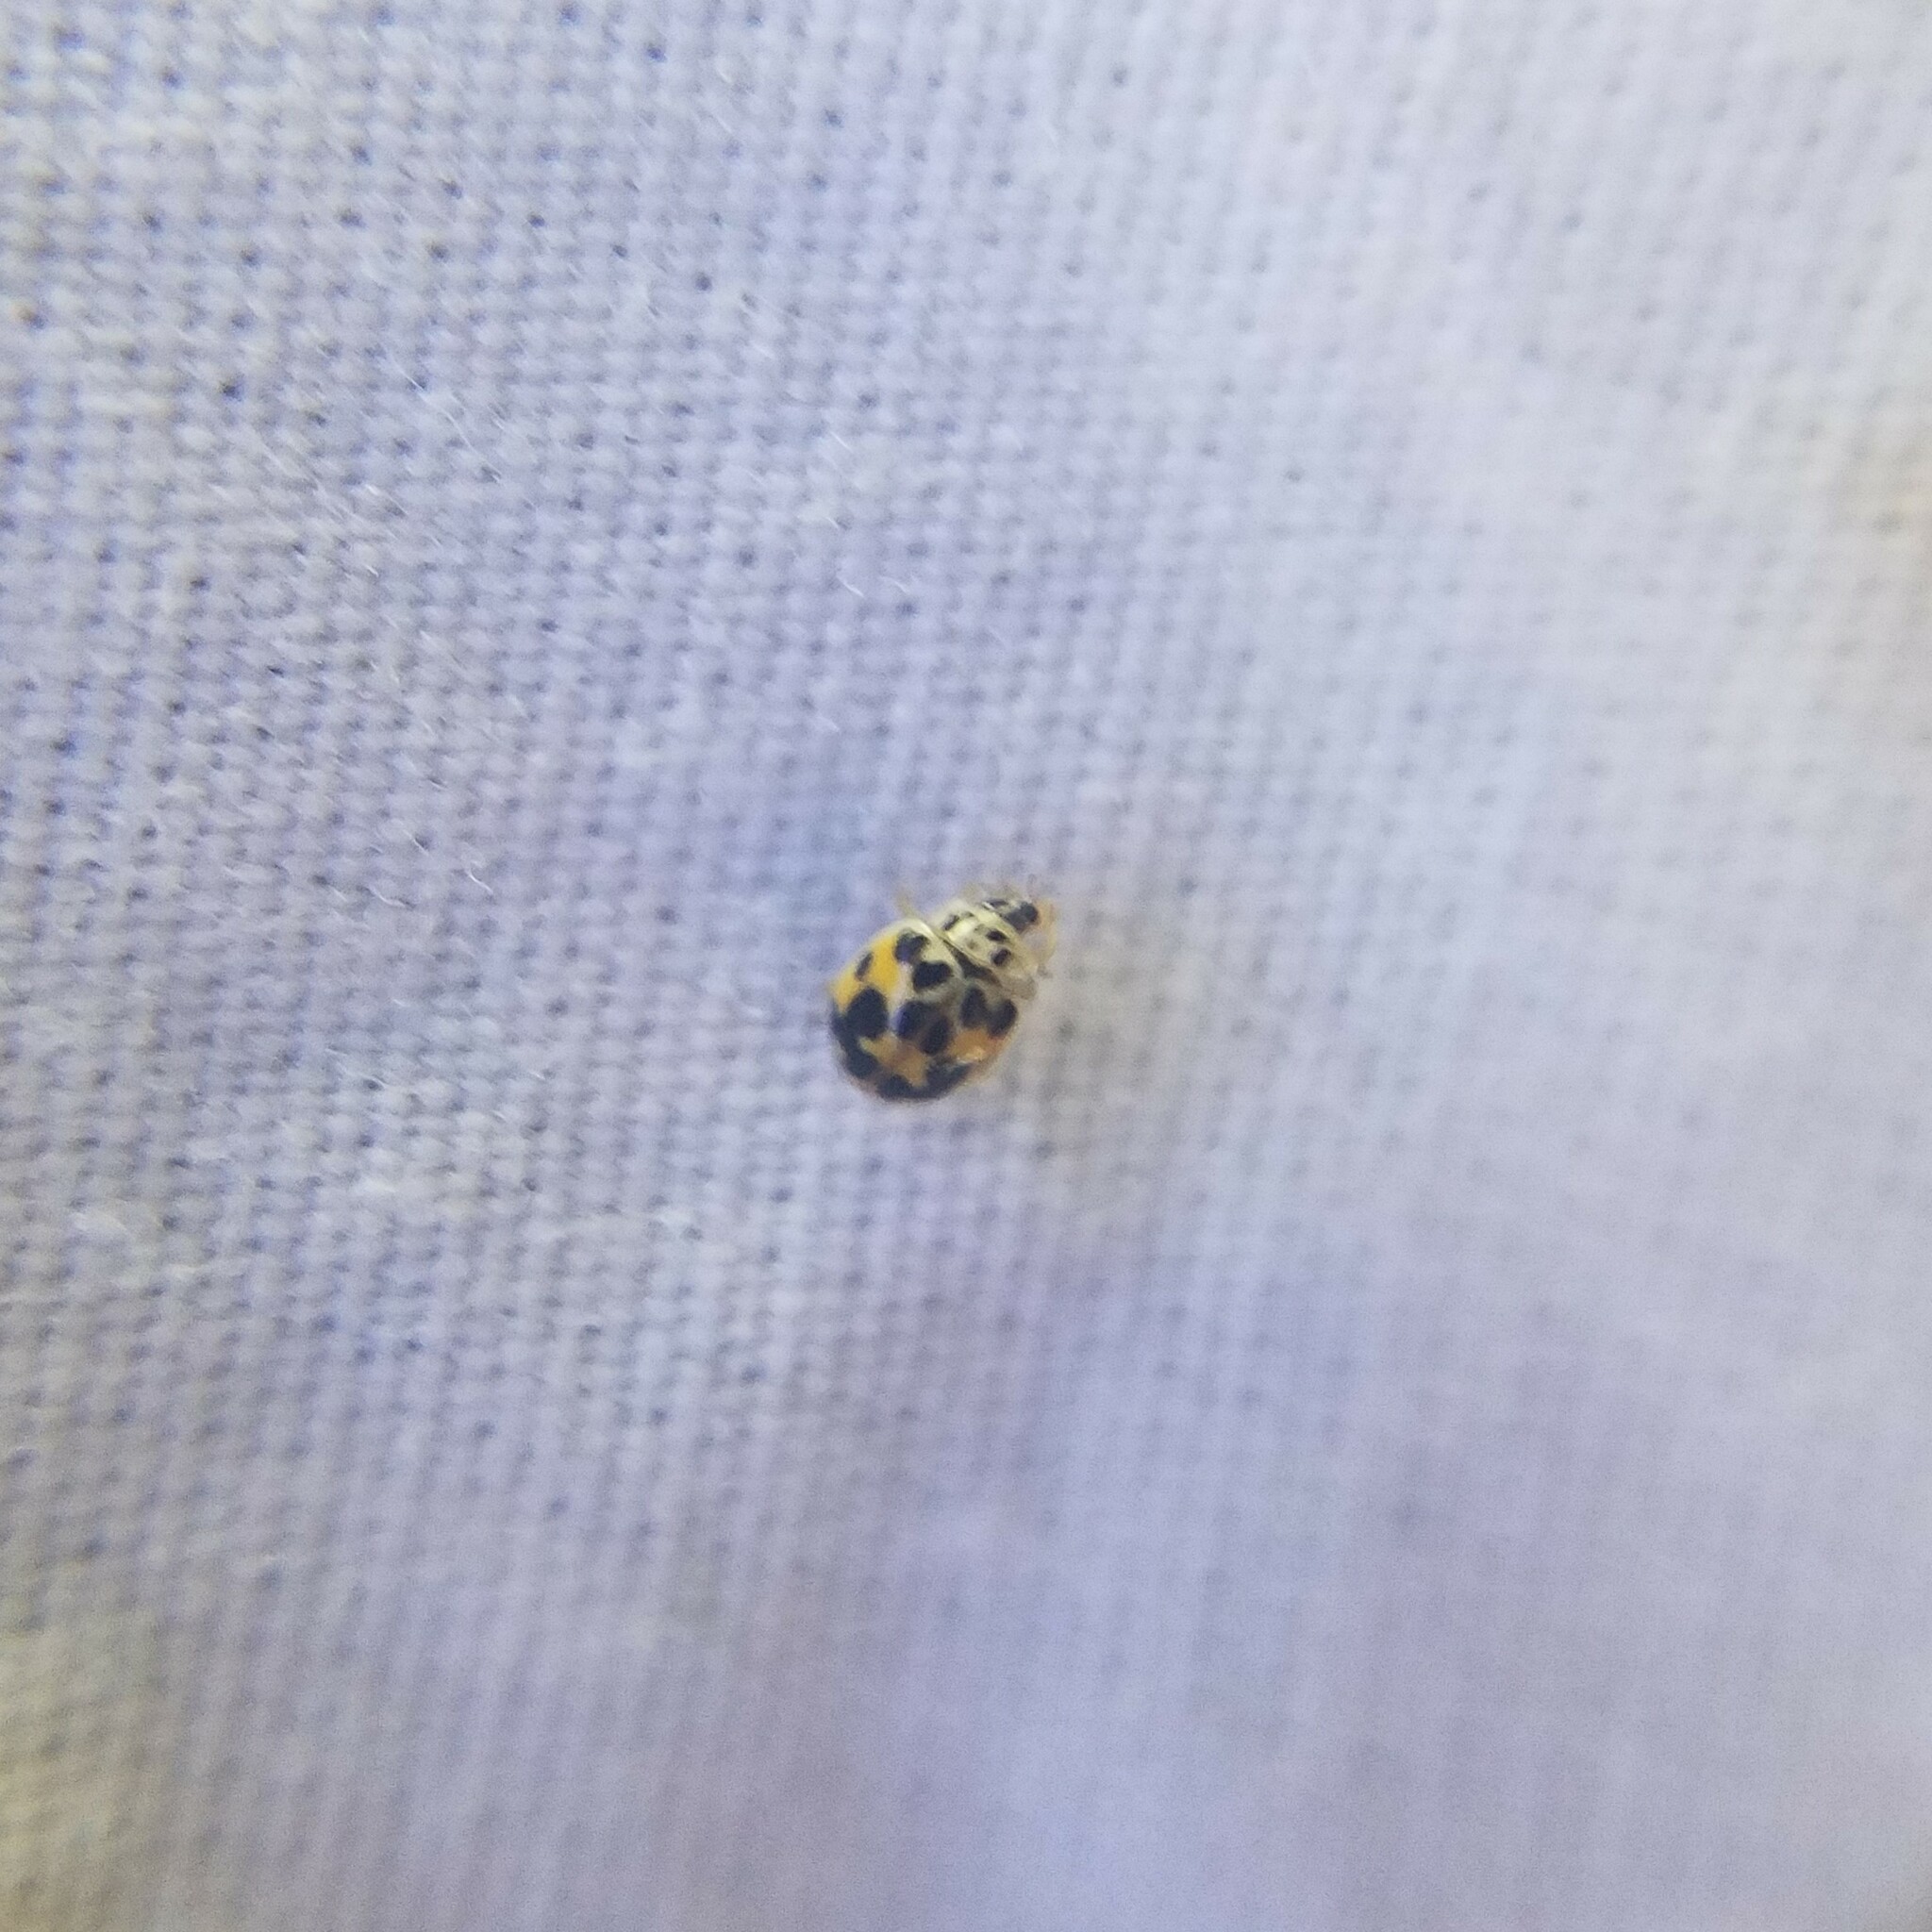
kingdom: Animalia
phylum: Arthropoda
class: Insecta
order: Coleoptera
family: Coccinellidae
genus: Psyllobora
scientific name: Psyllobora vigintimaculata
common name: Ladybird beetle
